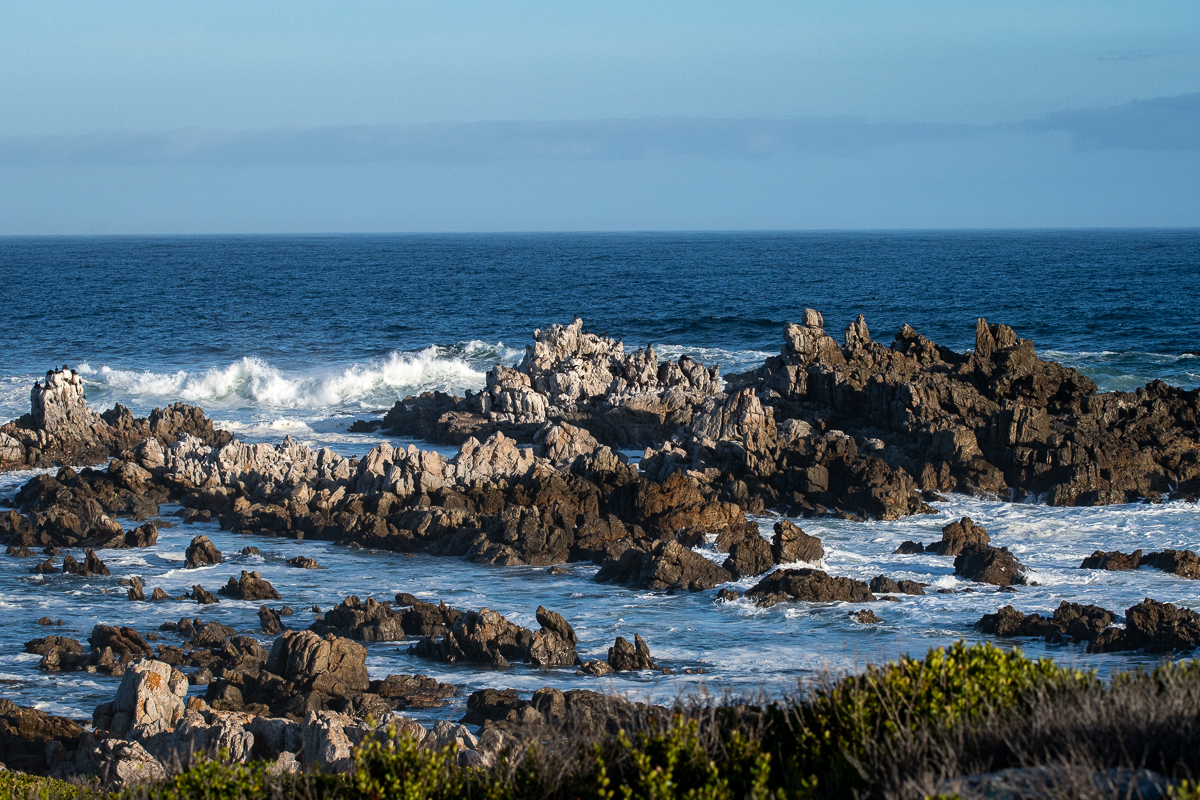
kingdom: Animalia
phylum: Chordata
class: Mammalia
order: Carnivora
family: Otariidae
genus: Arctocephalus
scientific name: Arctocephalus pusillus
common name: Brown fur seal
